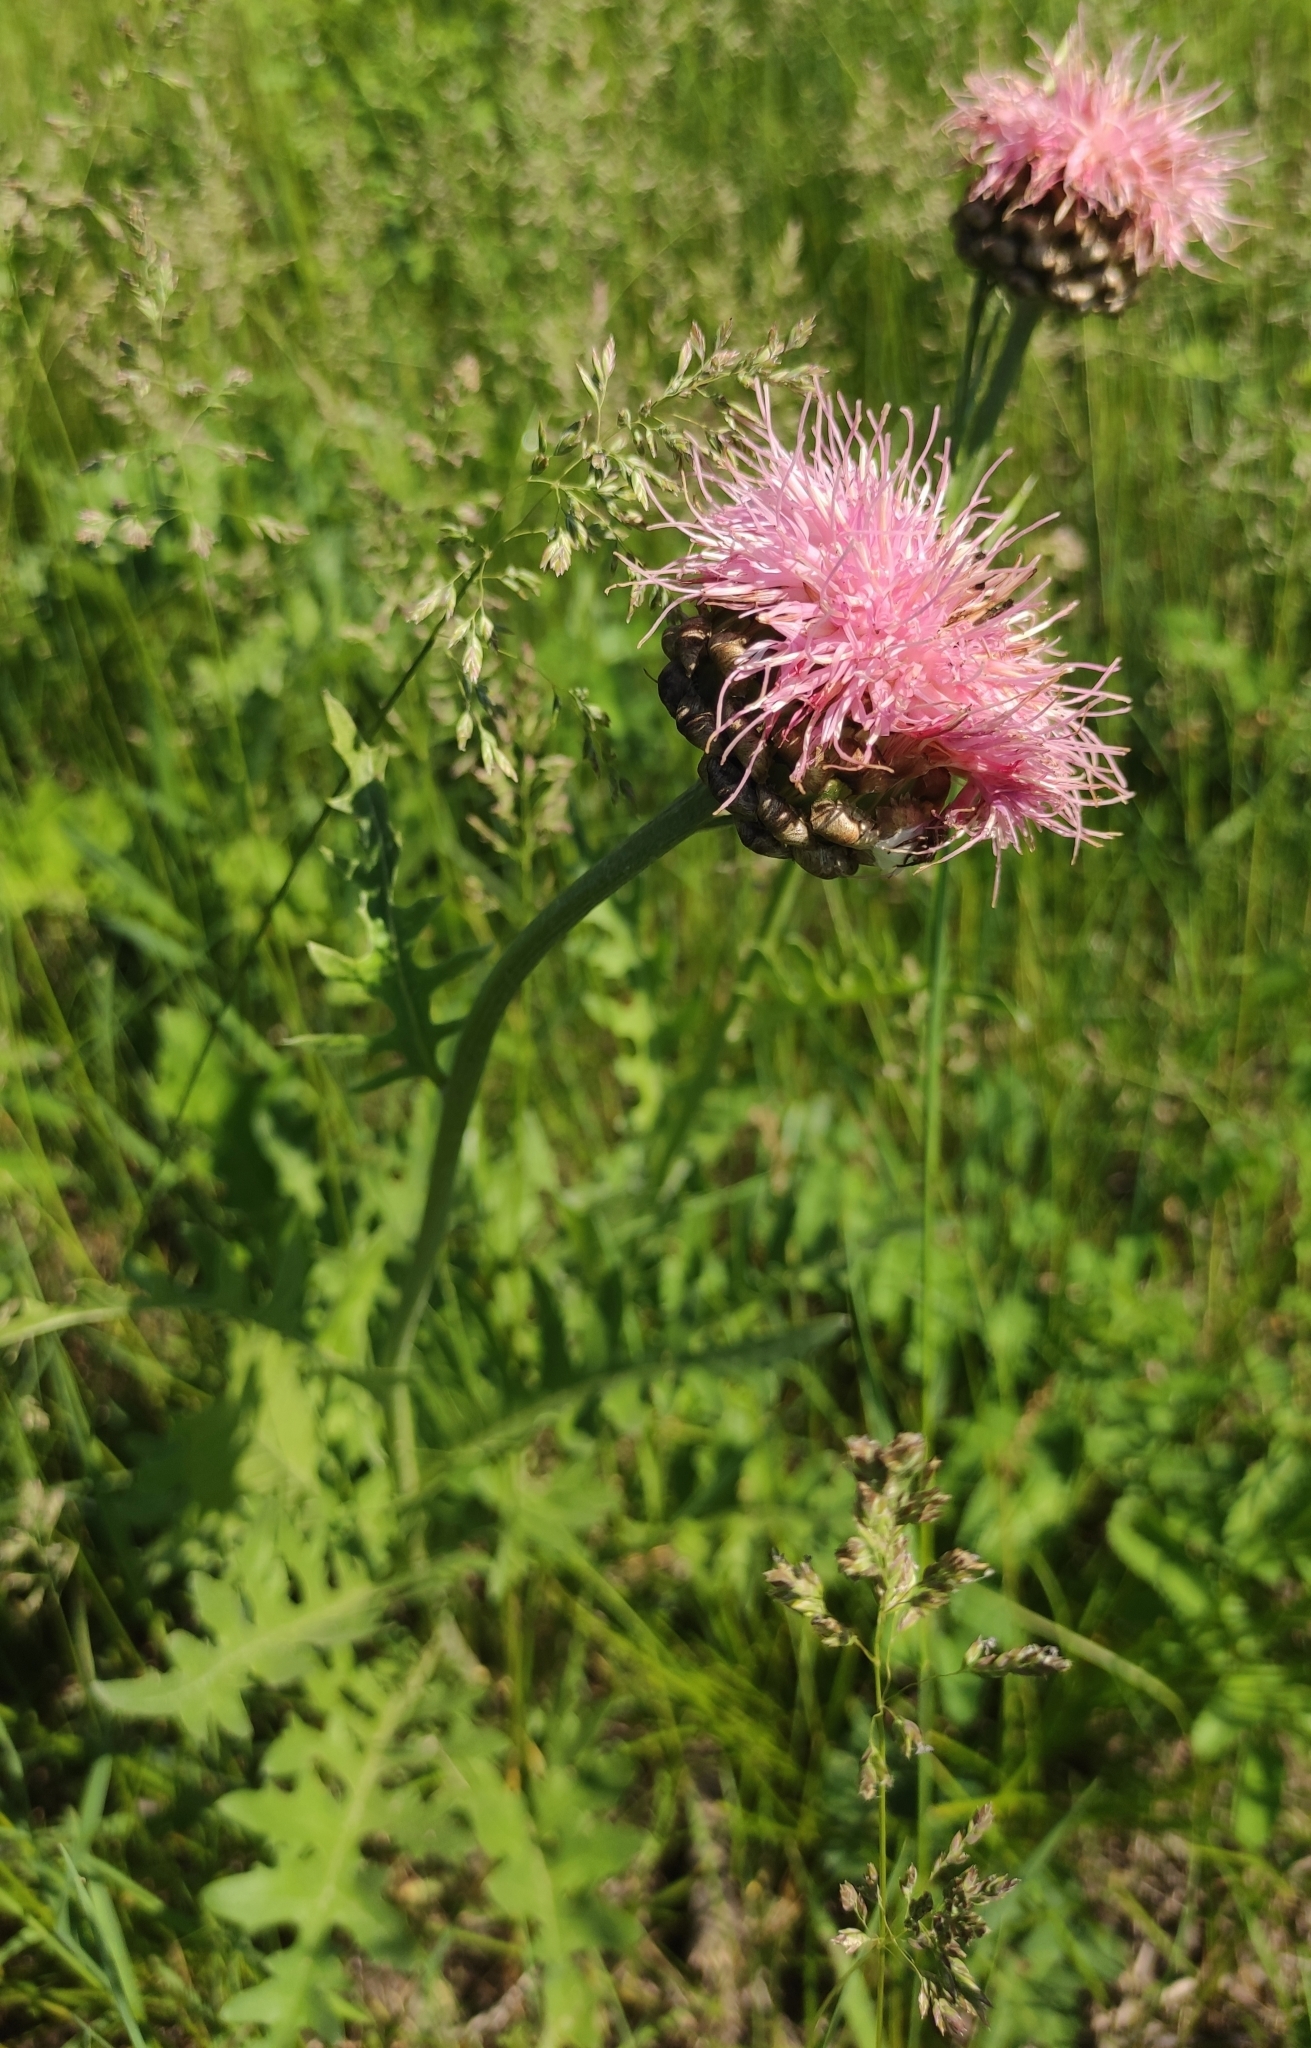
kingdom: Plantae
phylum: Tracheophyta
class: Magnoliopsida
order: Asterales
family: Asteraceae
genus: Leuzea
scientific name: Leuzea uniflora
